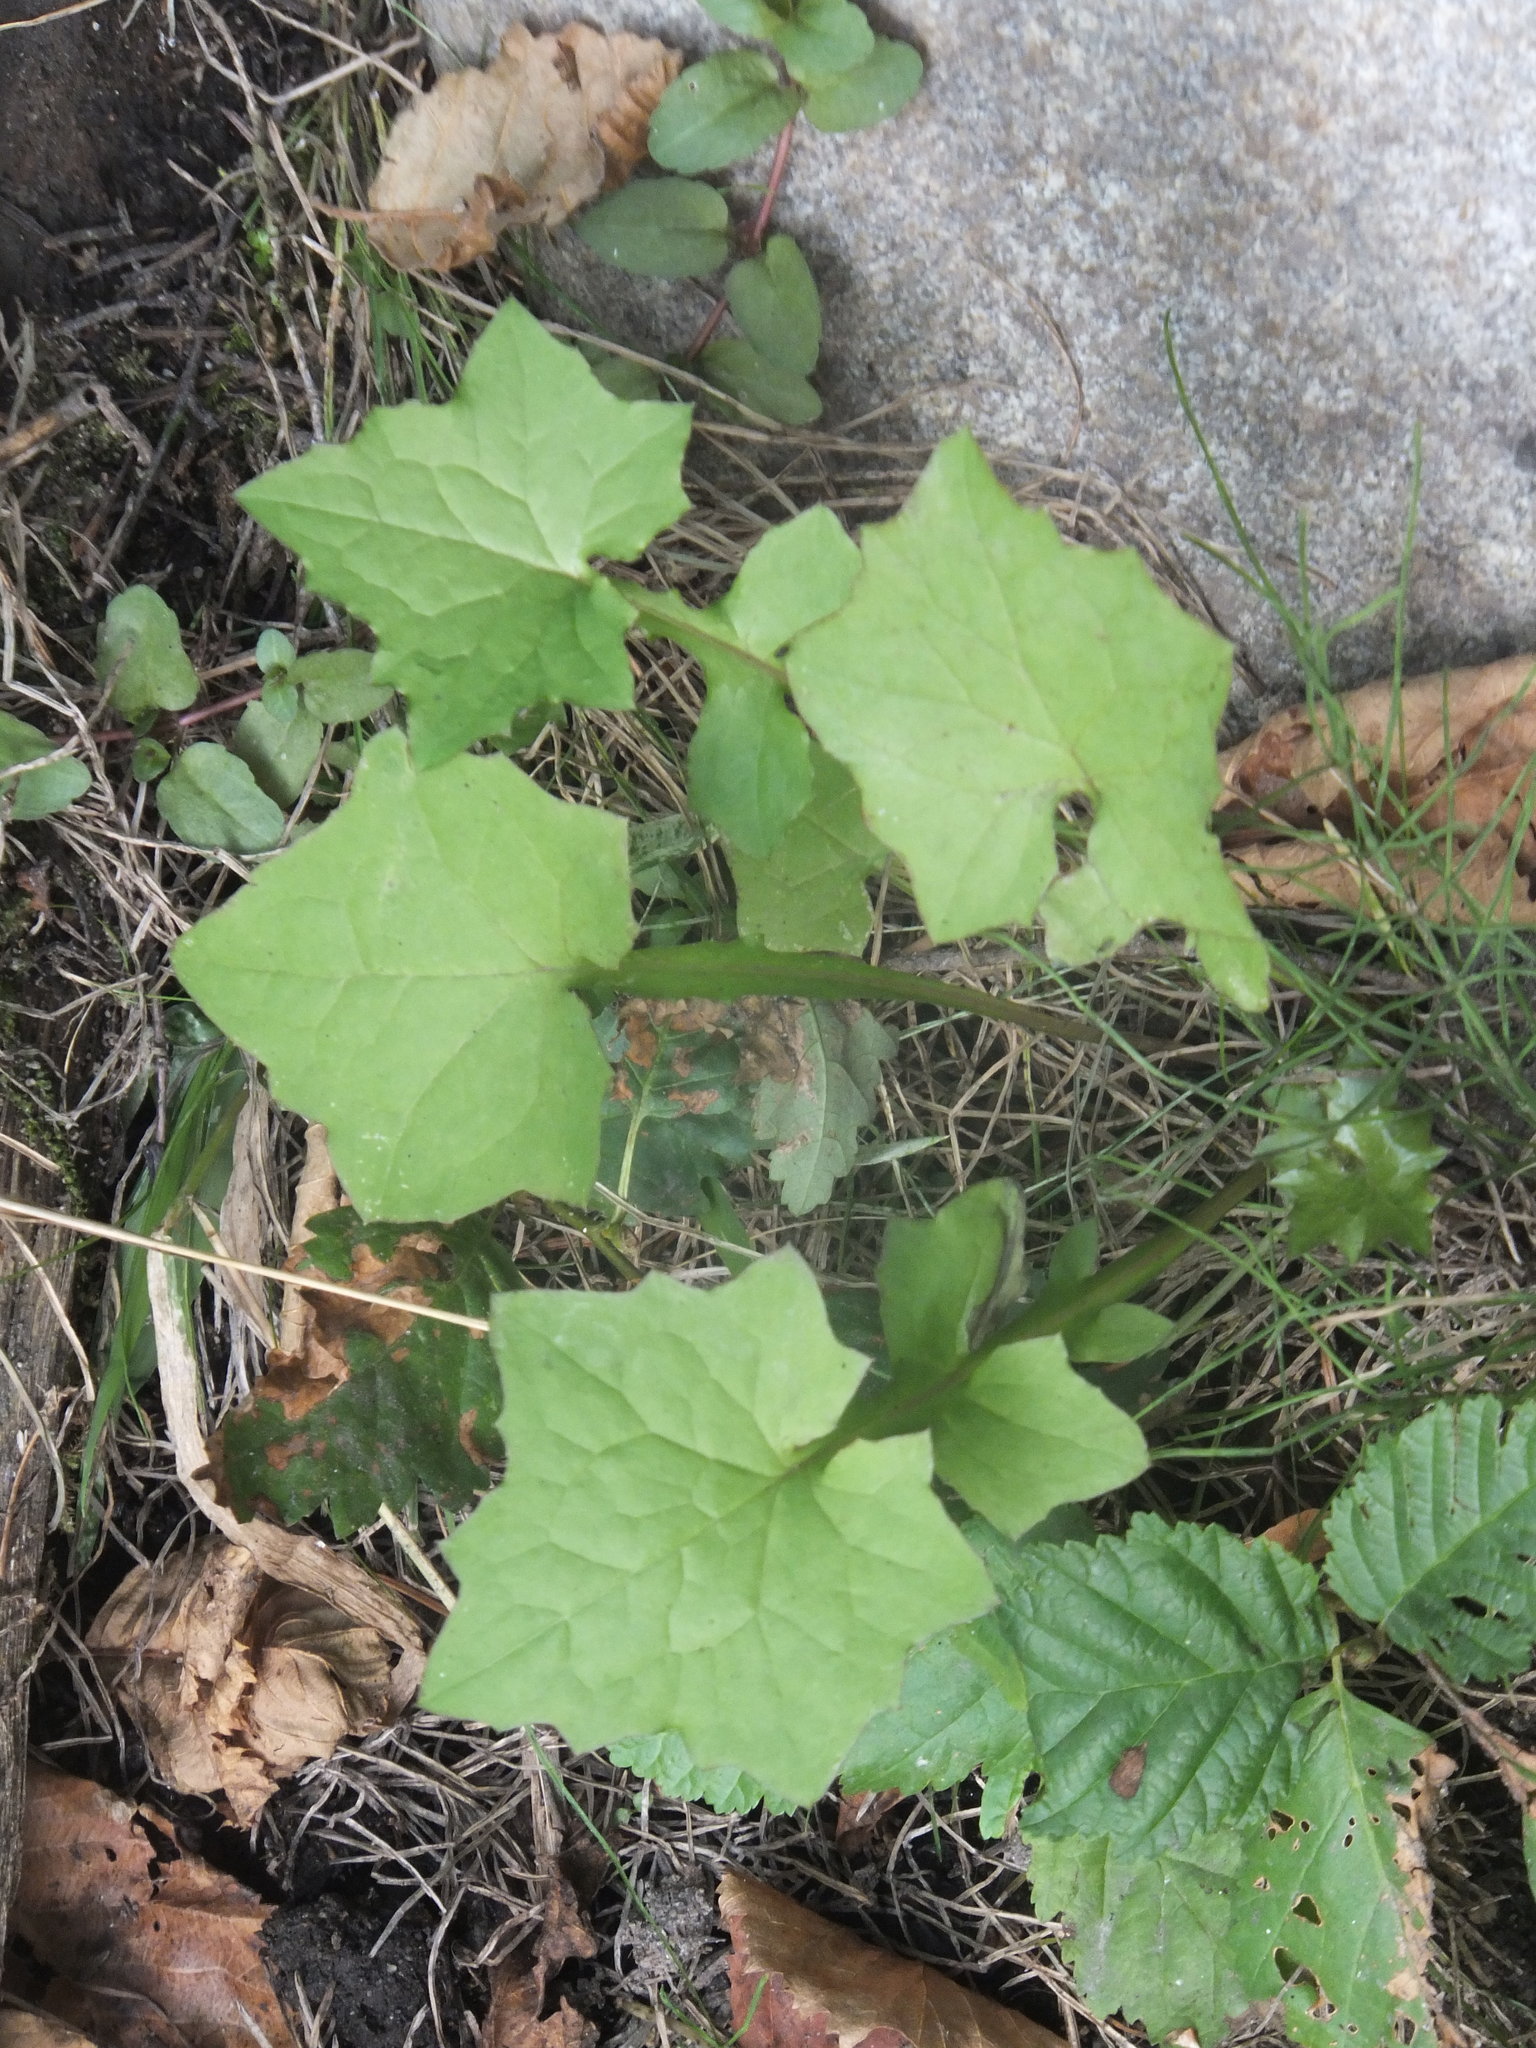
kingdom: Plantae
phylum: Tracheophyta
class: Magnoliopsida
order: Asterales
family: Asteraceae
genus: Mycelis
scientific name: Mycelis muralis
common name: Wall lettuce
